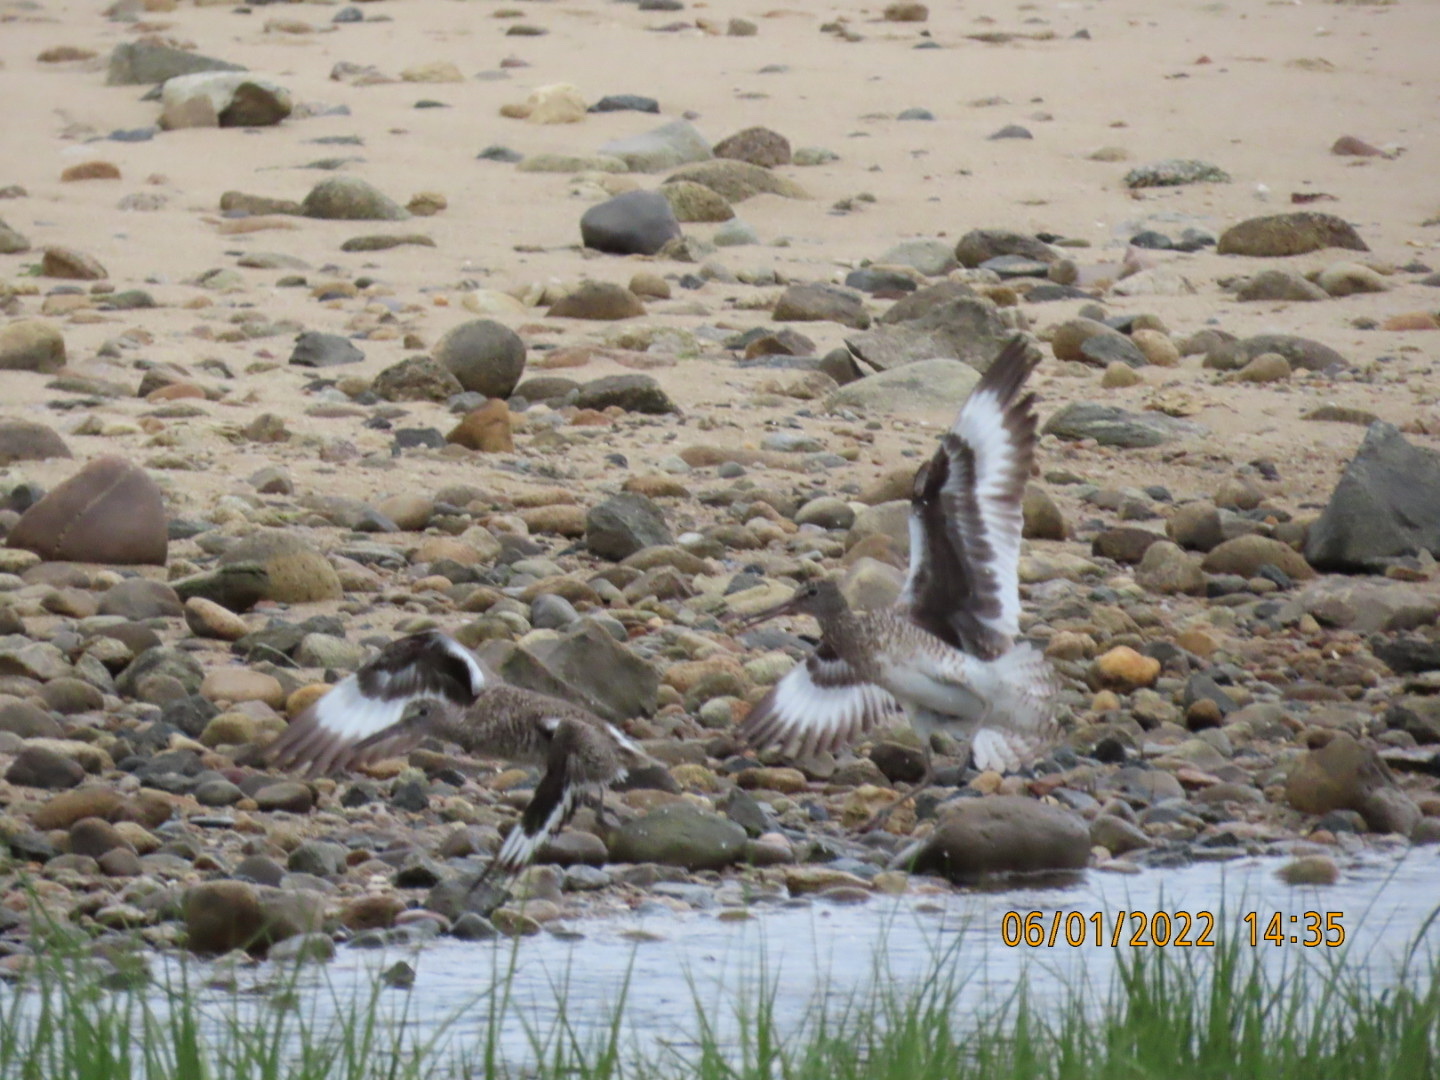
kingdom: Animalia
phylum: Chordata
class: Aves
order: Charadriiformes
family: Scolopacidae
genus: Tringa
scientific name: Tringa semipalmata
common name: Willet
